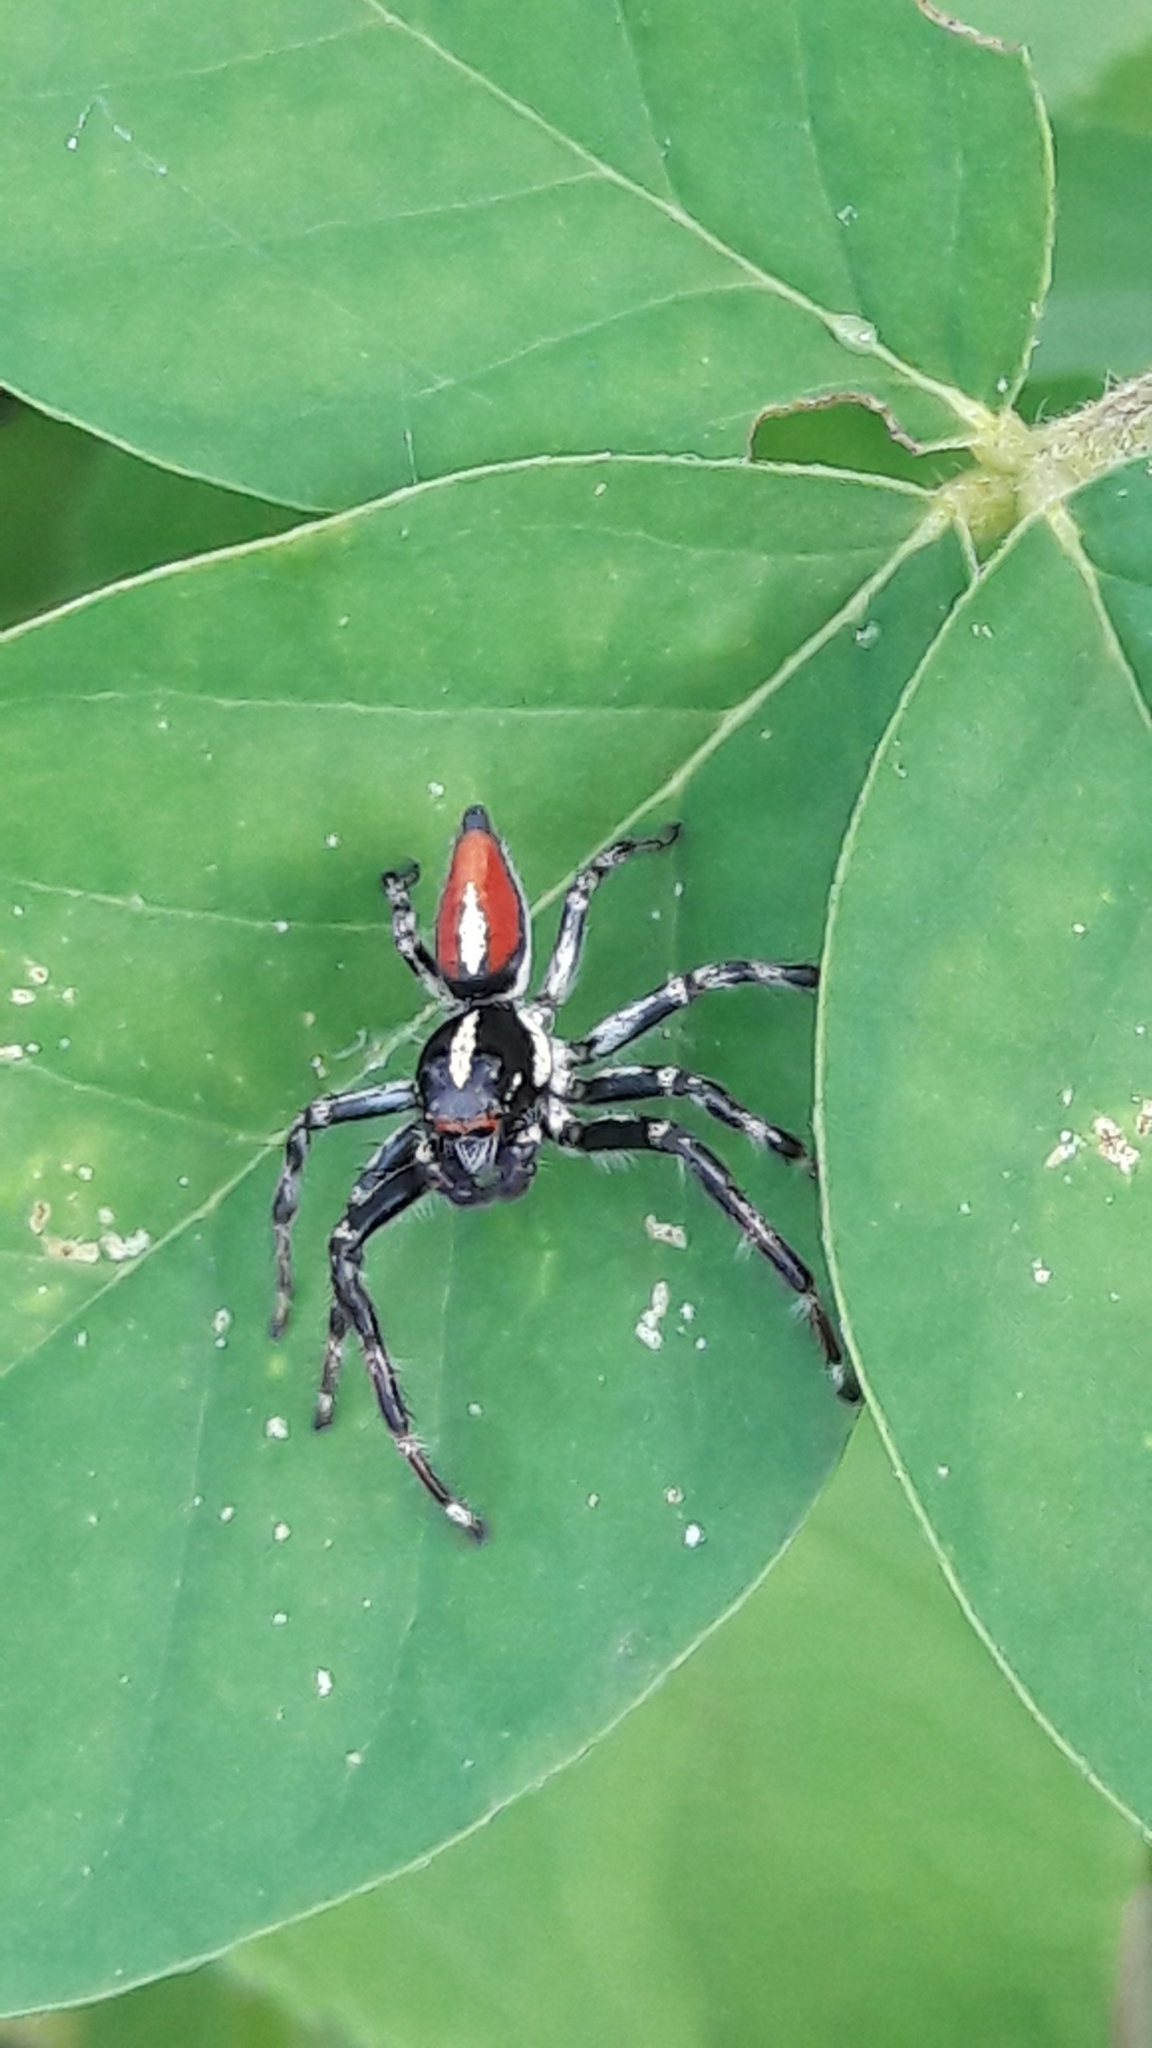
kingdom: Animalia
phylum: Arthropoda
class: Arachnida
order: Araneae
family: Salticidae
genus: Frigga
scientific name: Frigga quintensis
